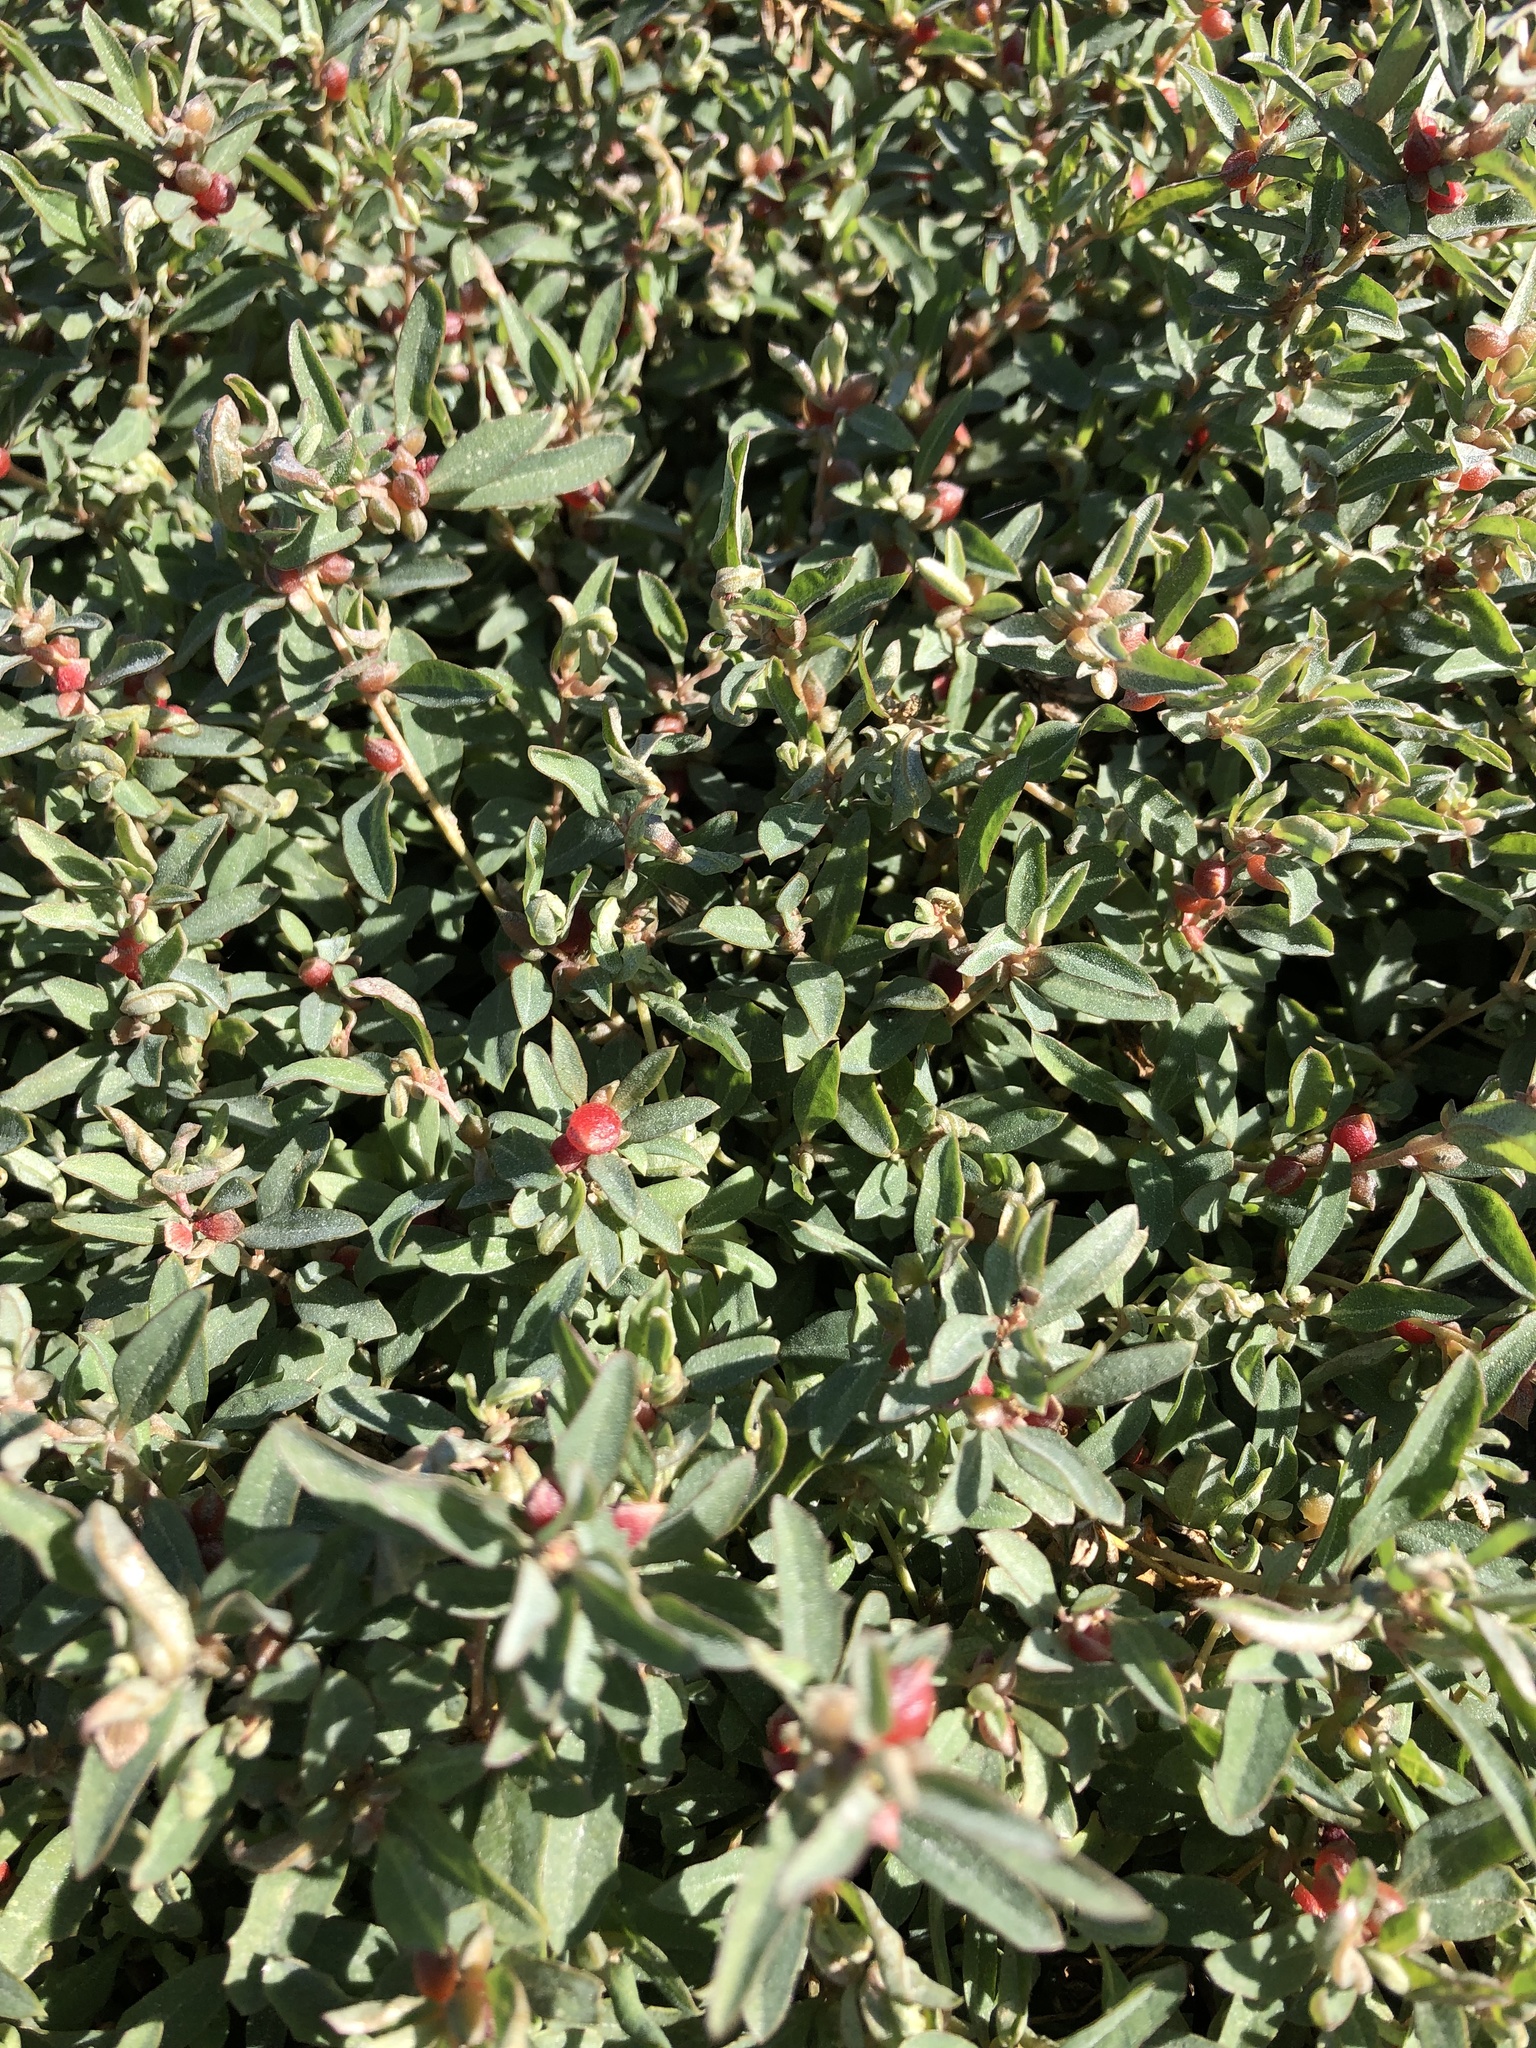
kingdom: Plantae
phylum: Tracheophyta
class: Magnoliopsida
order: Caryophyllales
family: Amaranthaceae
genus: Atriplex
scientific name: Atriplex semibaccata
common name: Australian saltbush
